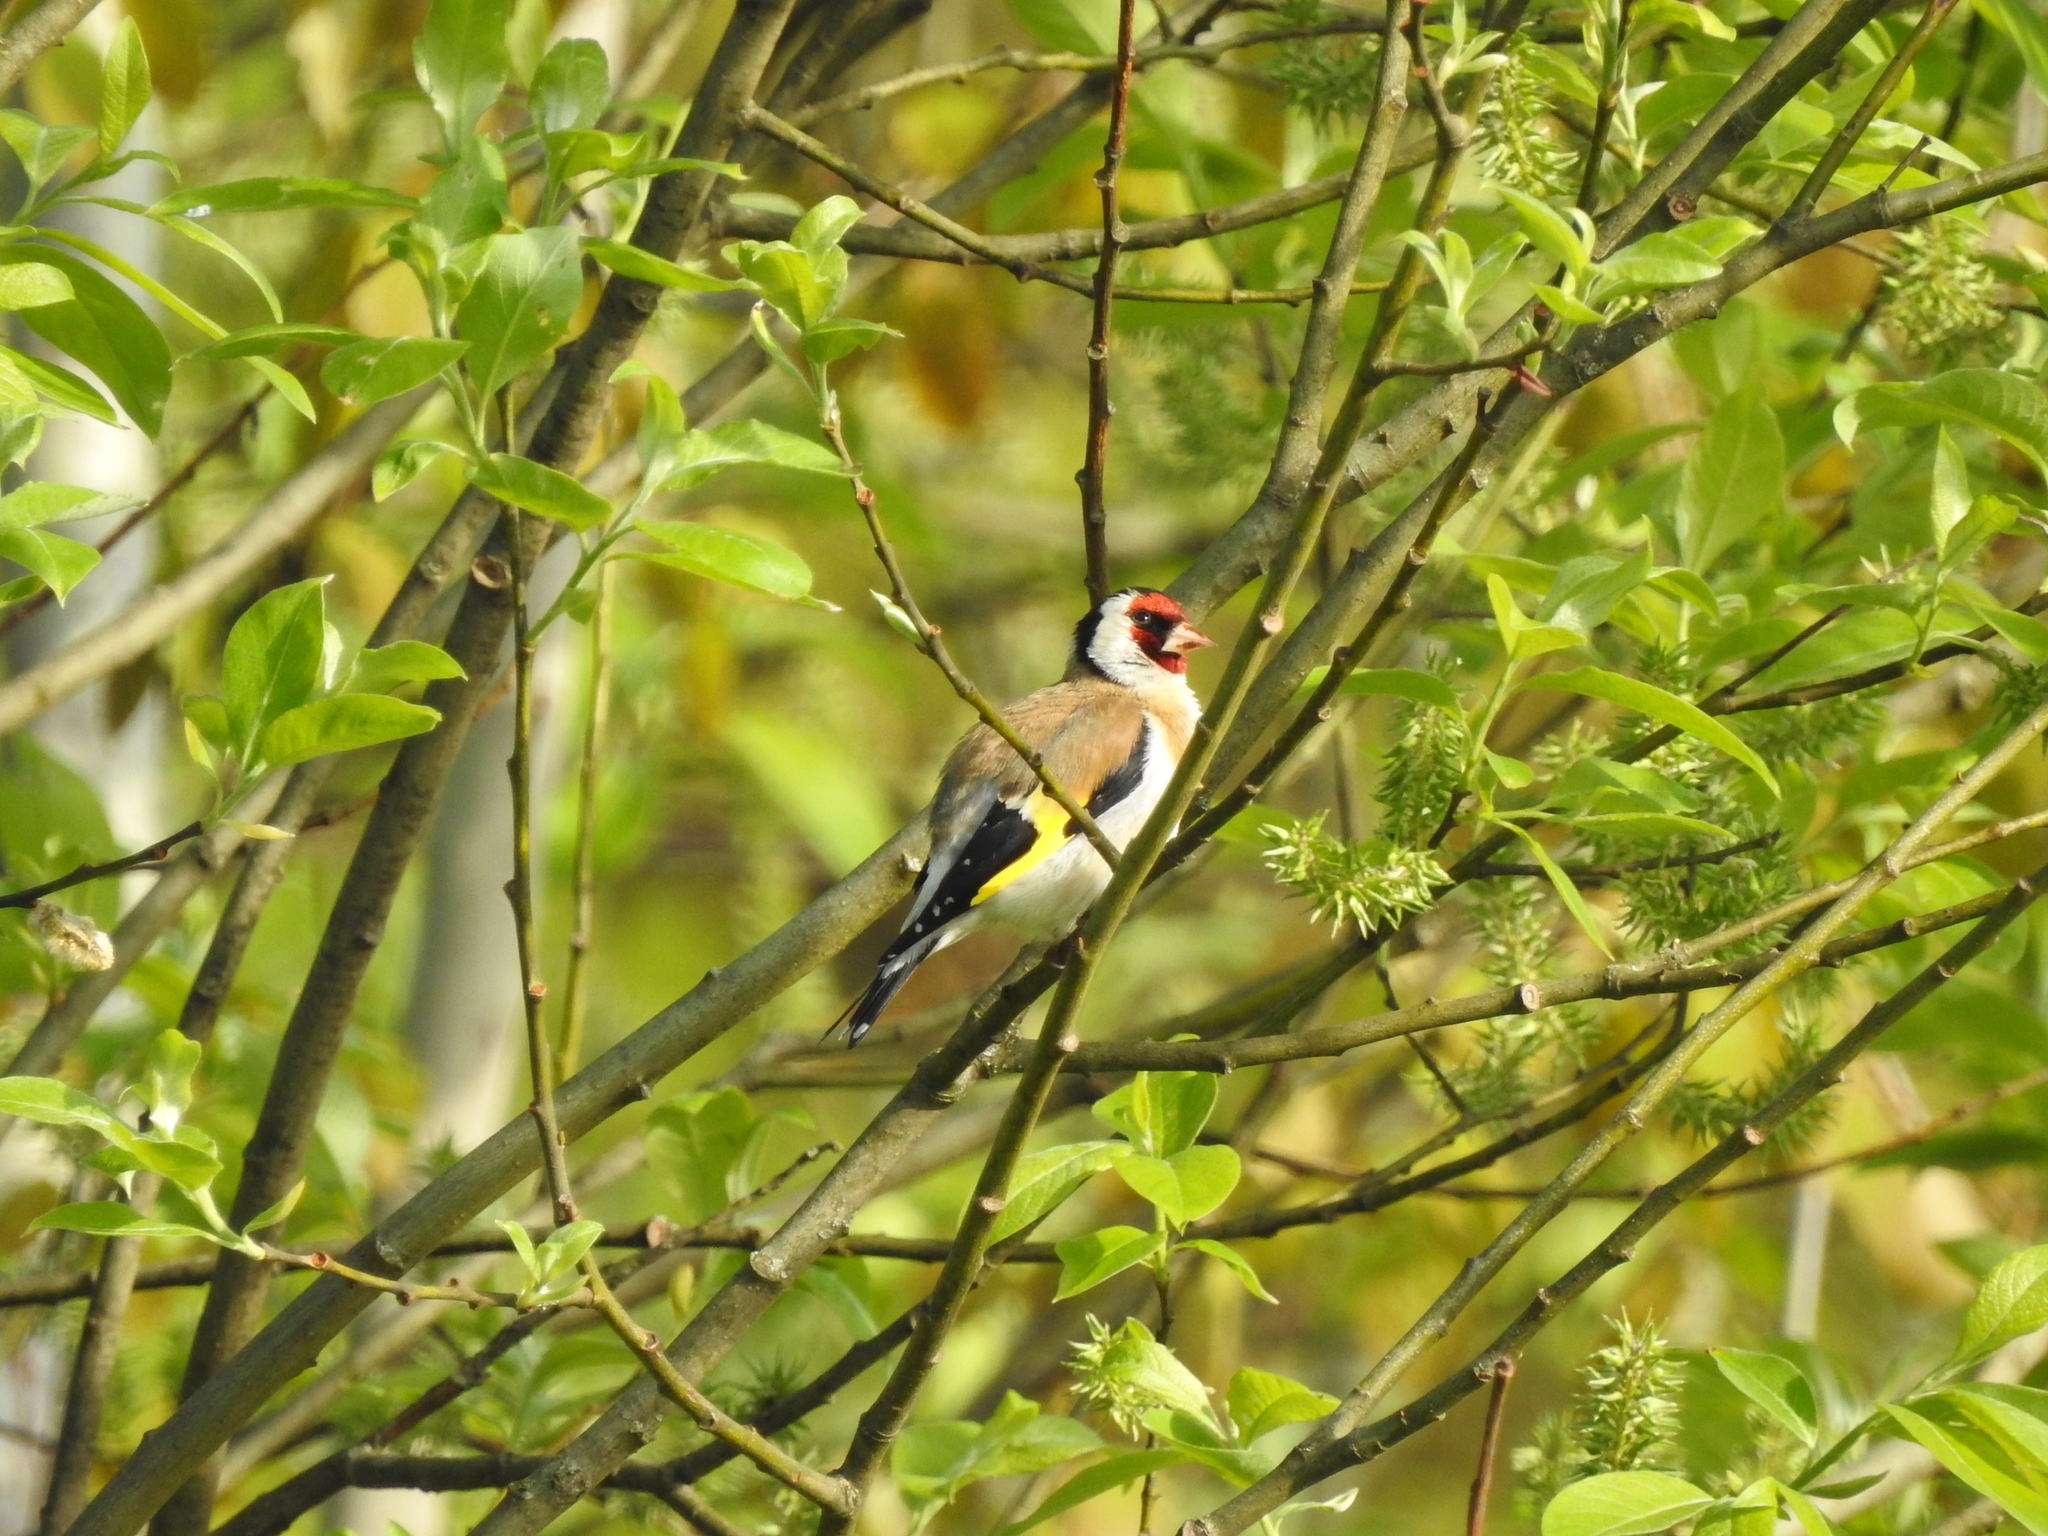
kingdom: Animalia
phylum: Chordata
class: Aves
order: Passeriformes
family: Fringillidae
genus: Carduelis
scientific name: Carduelis carduelis
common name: European goldfinch
